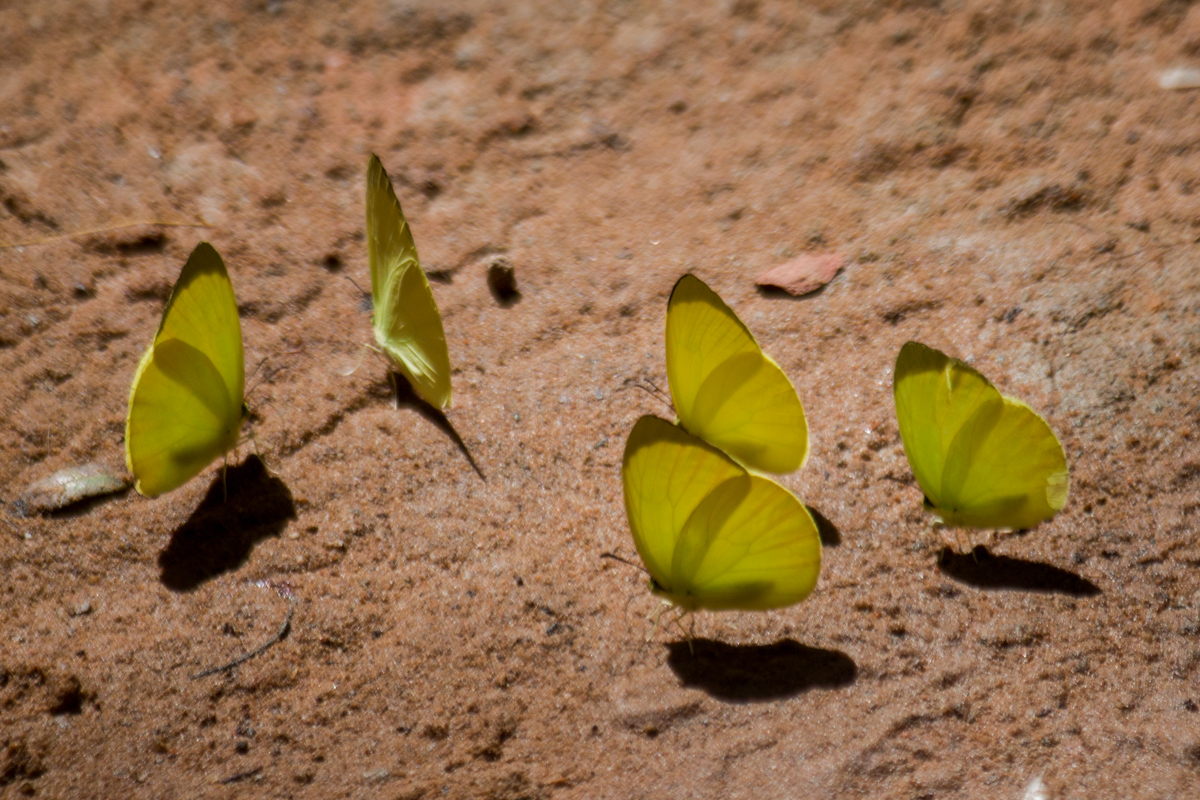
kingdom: Animalia
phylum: Arthropoda
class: Insecta
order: Lepidoptera
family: Pieridae
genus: Gandaca
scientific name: Gandaca harina
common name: Tree yellow
